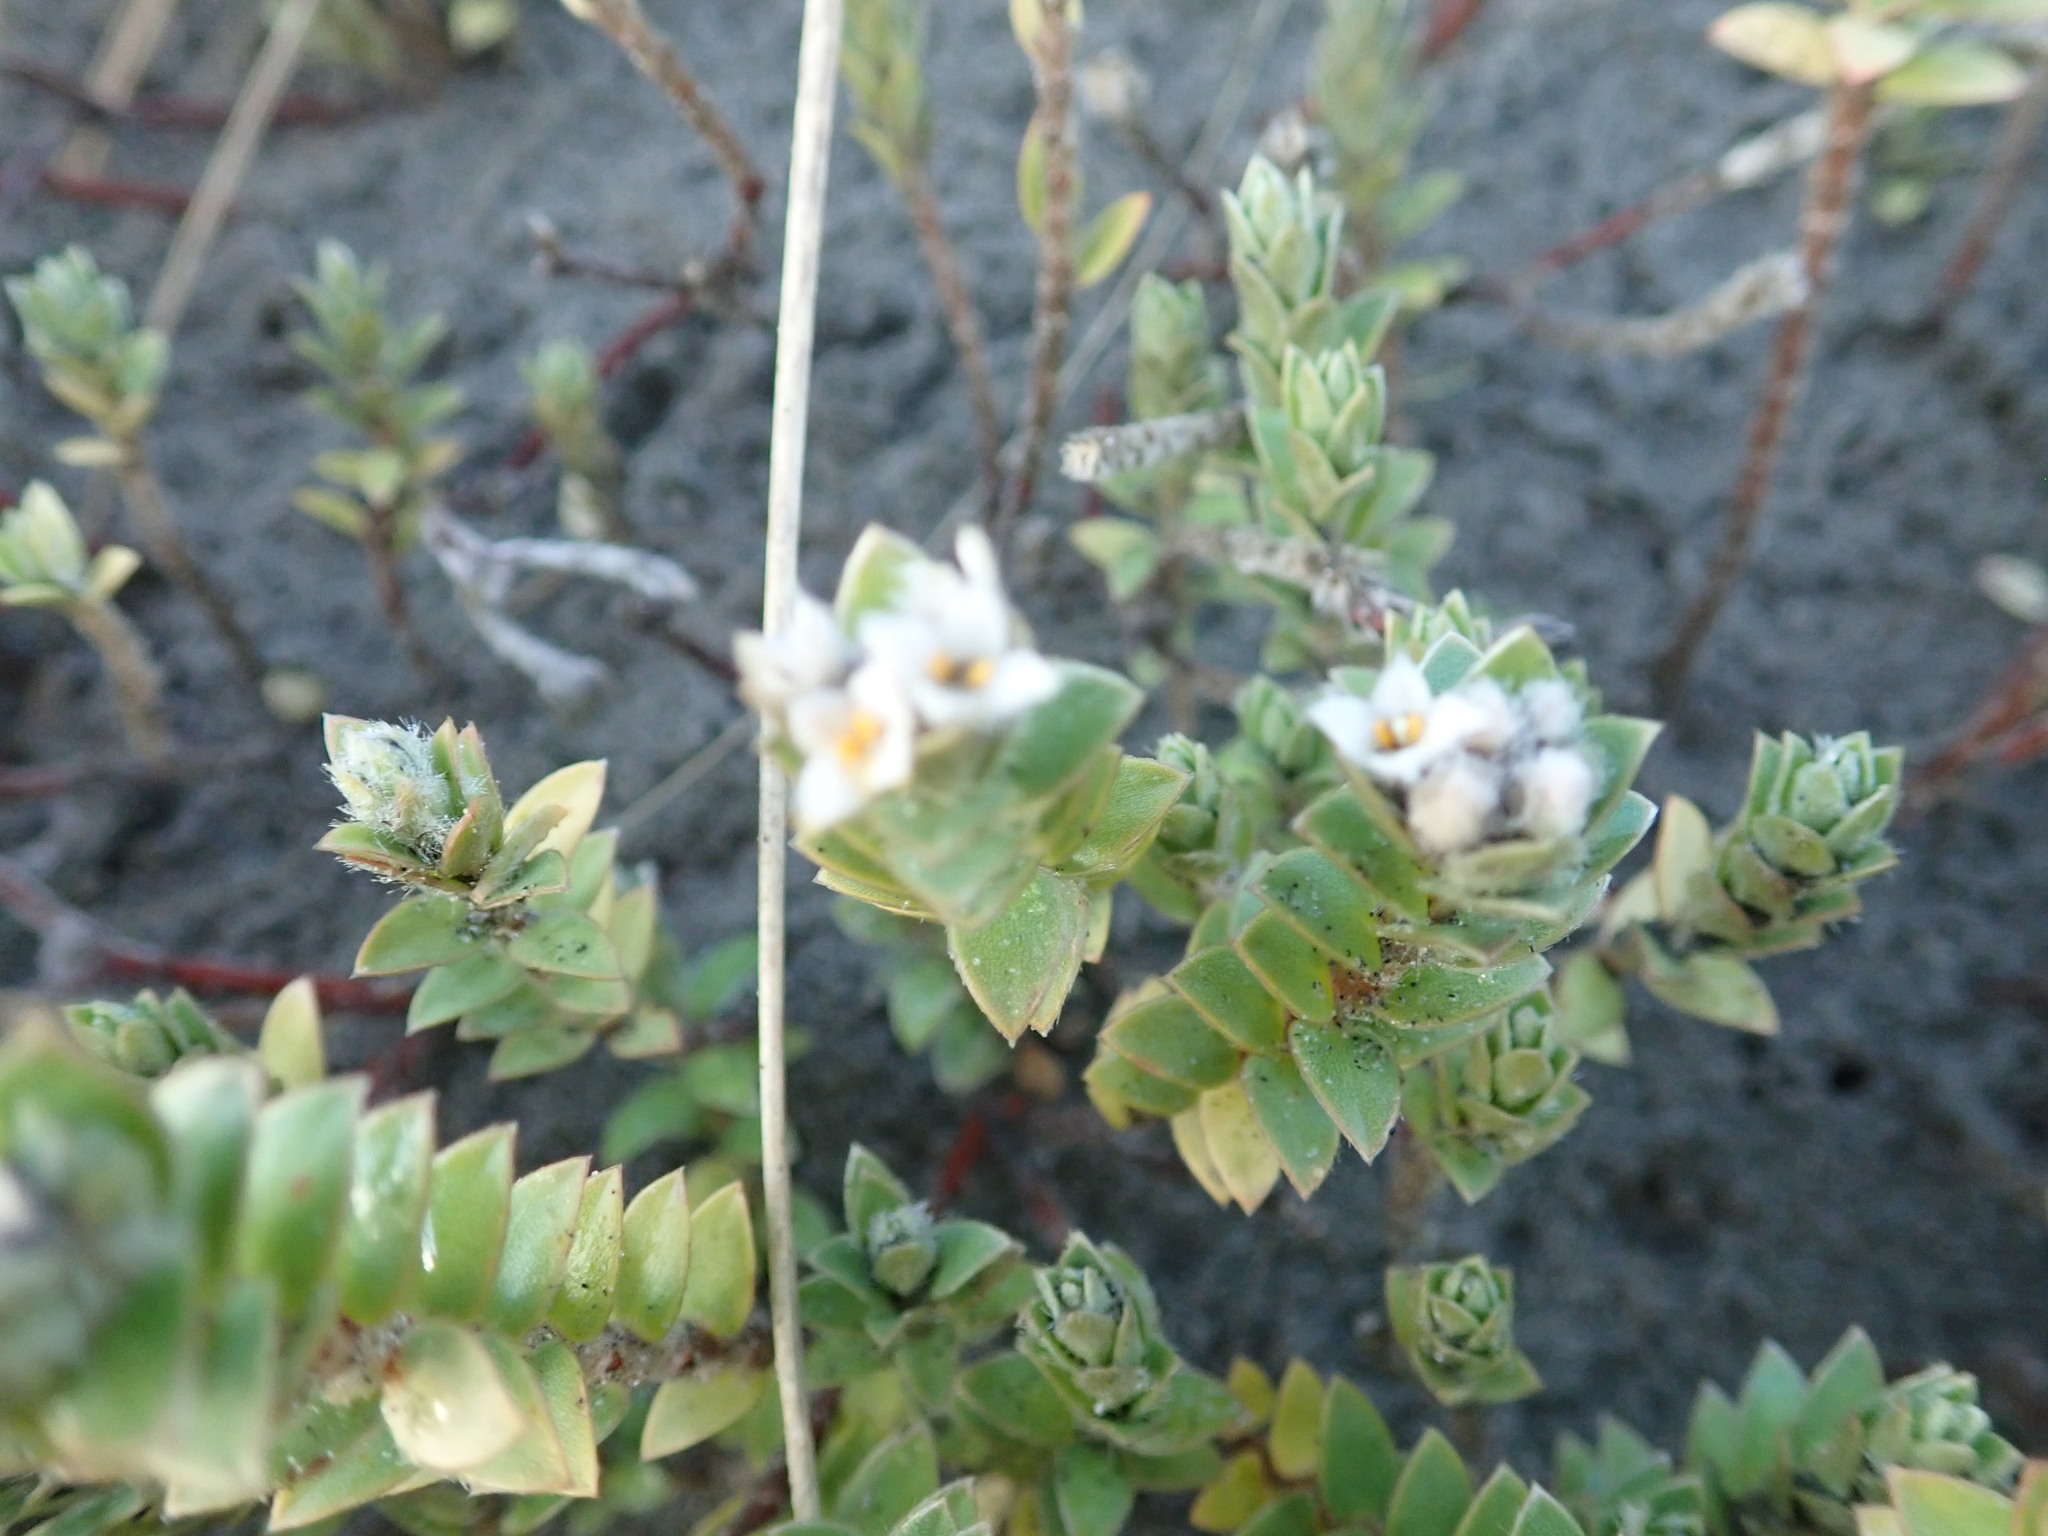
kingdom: Plantae
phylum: Tracheophyta
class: Magnoliopsida
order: Malvales
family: Thymelaeaceae
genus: Pimelea
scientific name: Pimelea villosa
